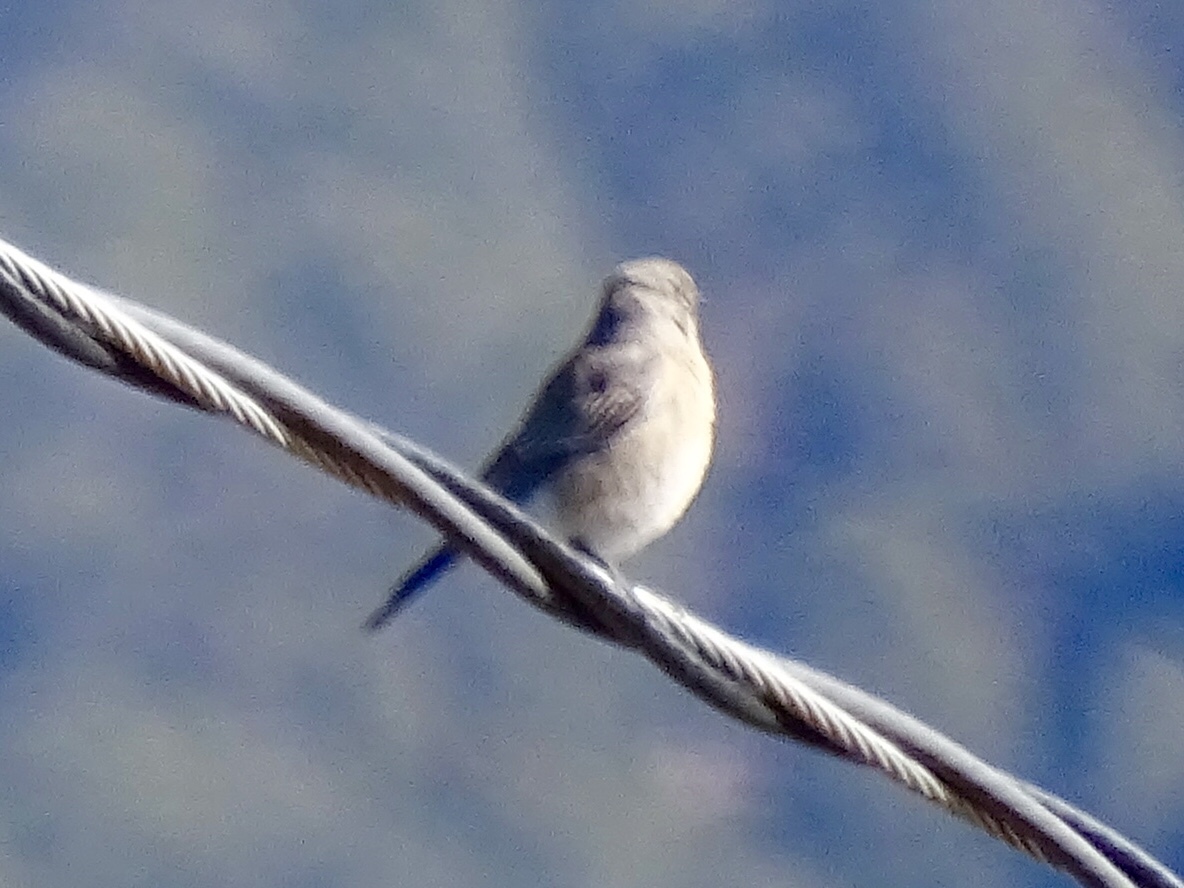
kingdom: Animalia
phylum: Chordata
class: Aves
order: Passeriformes
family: Turdidae
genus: Sialia
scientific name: Sialia mexicana
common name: Western bluebird
